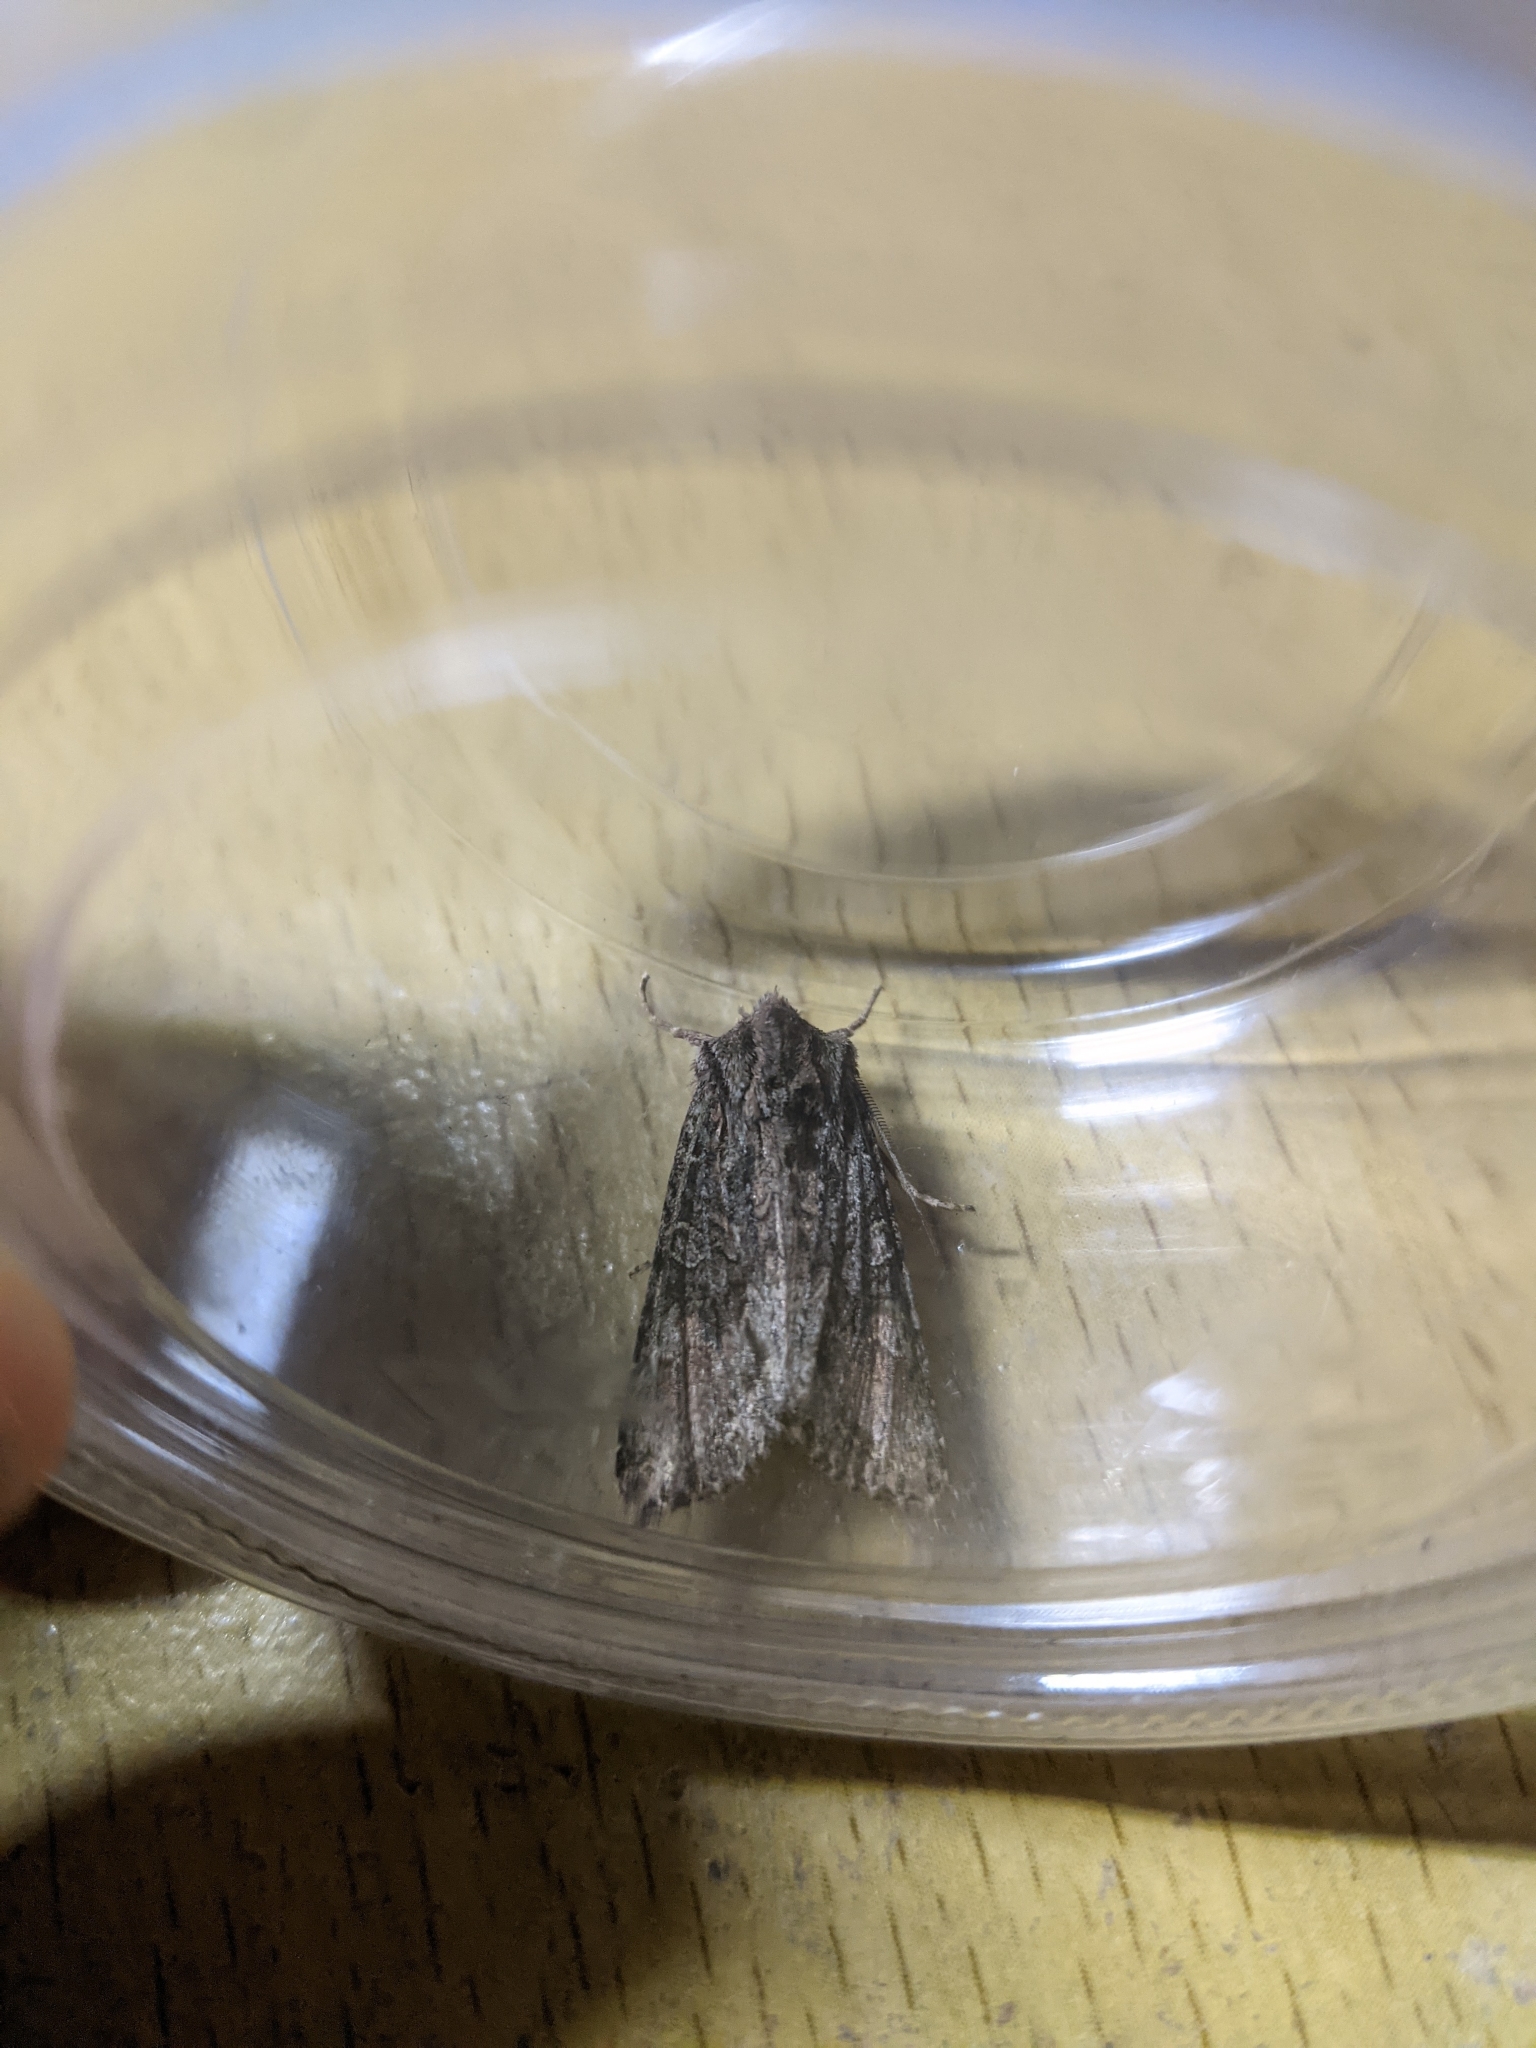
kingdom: Animalia
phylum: Arthropoda
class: Insecta
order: Lepidoptera
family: Noctuidae
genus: Ichneutica
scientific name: Ichneutica mutans
